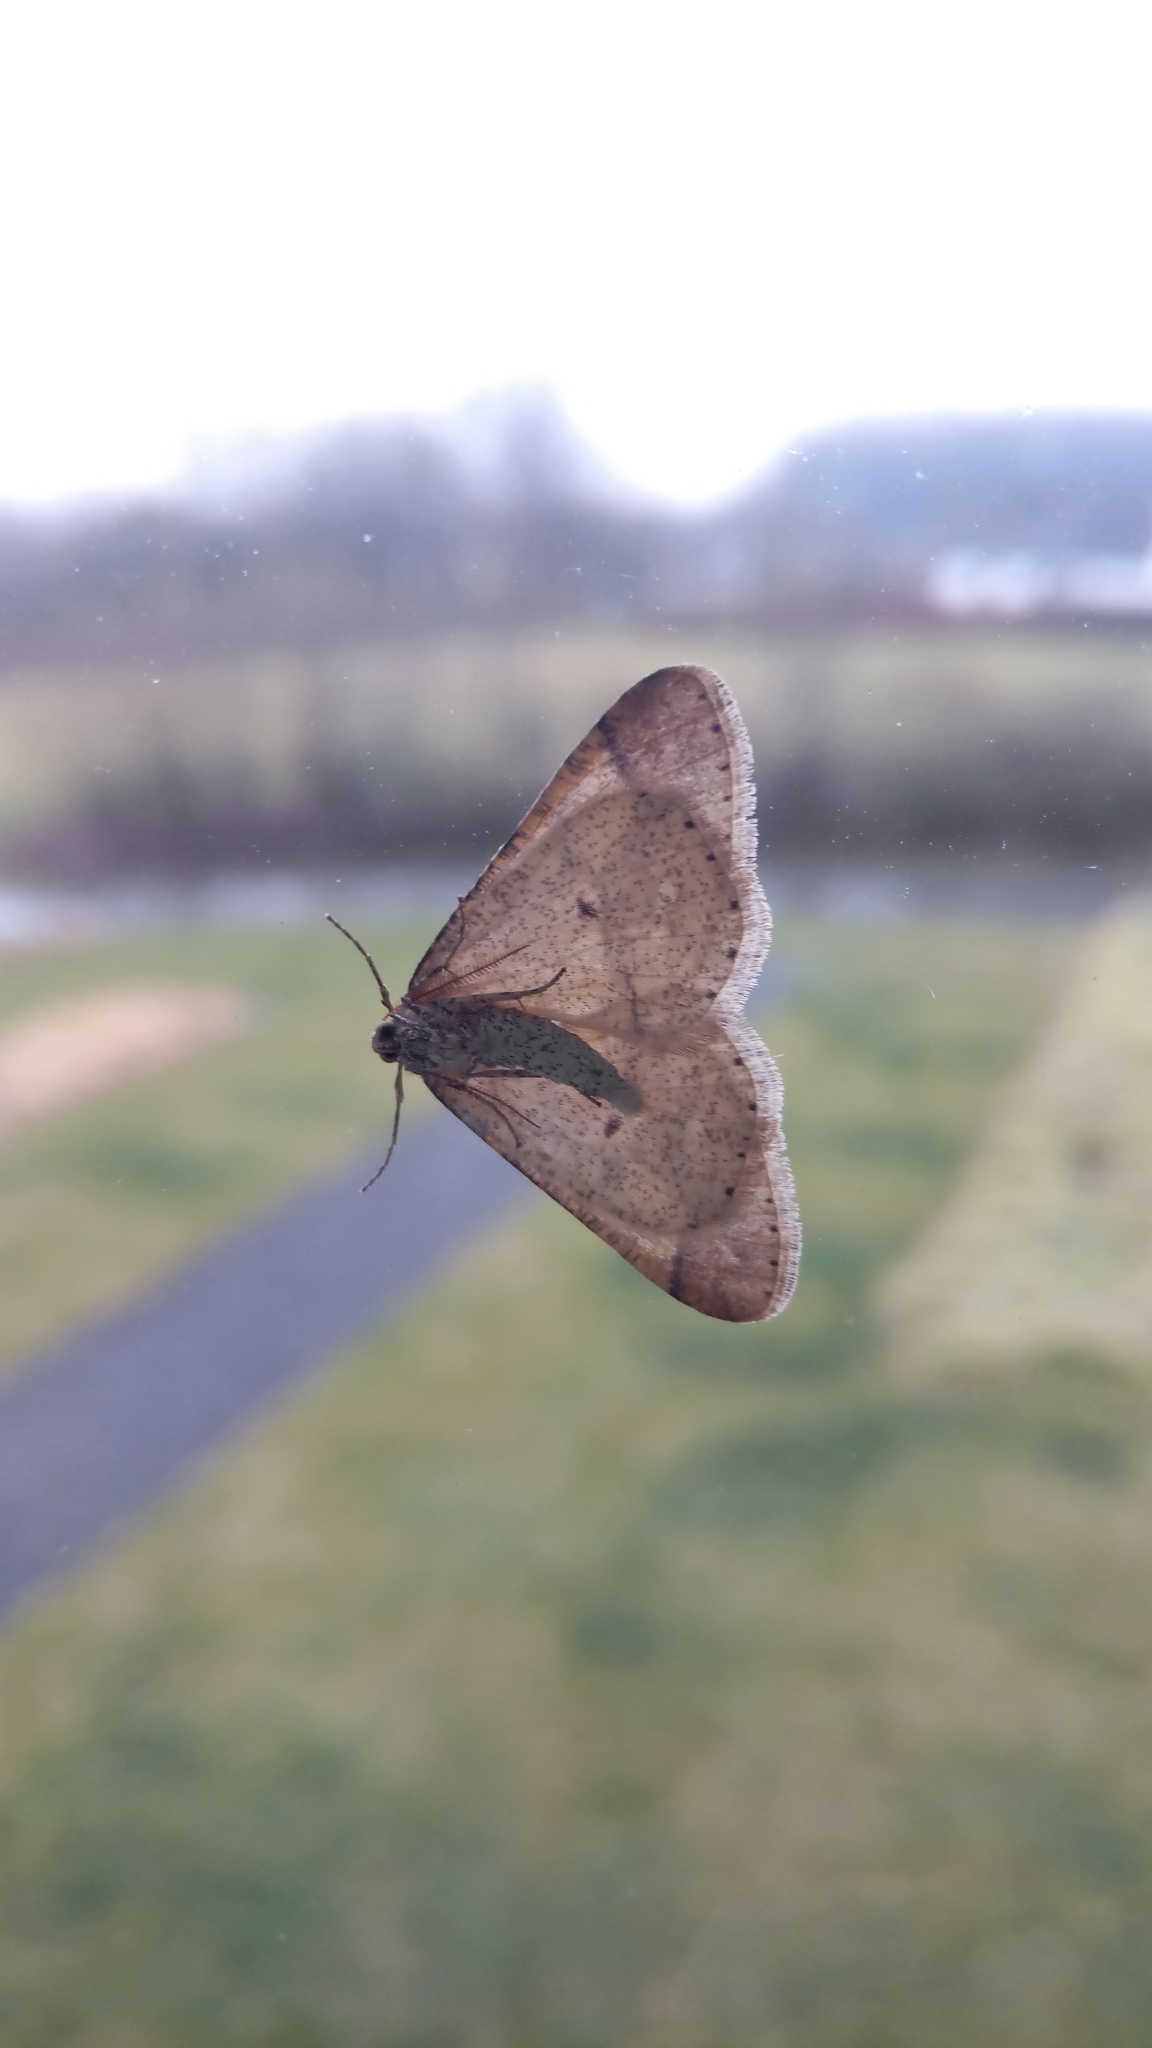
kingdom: Animalia
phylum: Arthropoda
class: Insecta
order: Lepidoptera
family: Geometridae
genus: Agriopis
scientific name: Agriopis marginaria
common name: Dotted border
